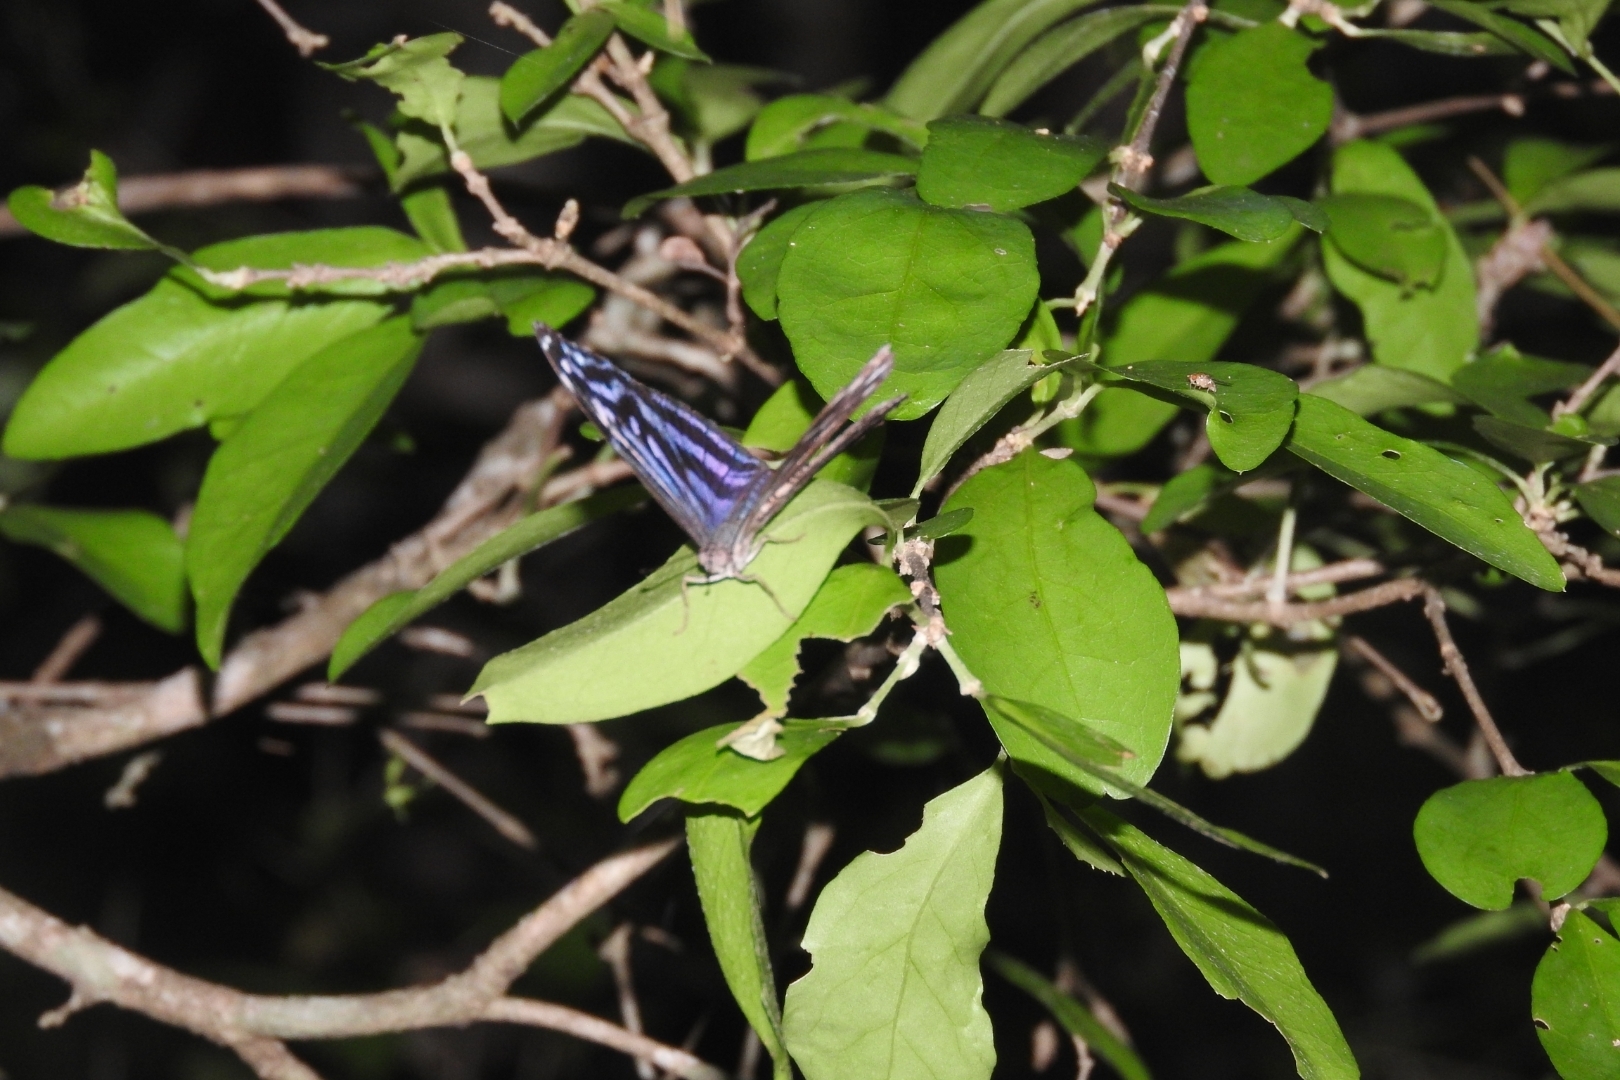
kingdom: Animalia
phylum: Arthropoda
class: Insecta
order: Lepidoptera
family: Nymphalidae
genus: Myscelia
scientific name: Myscelia ethusa
